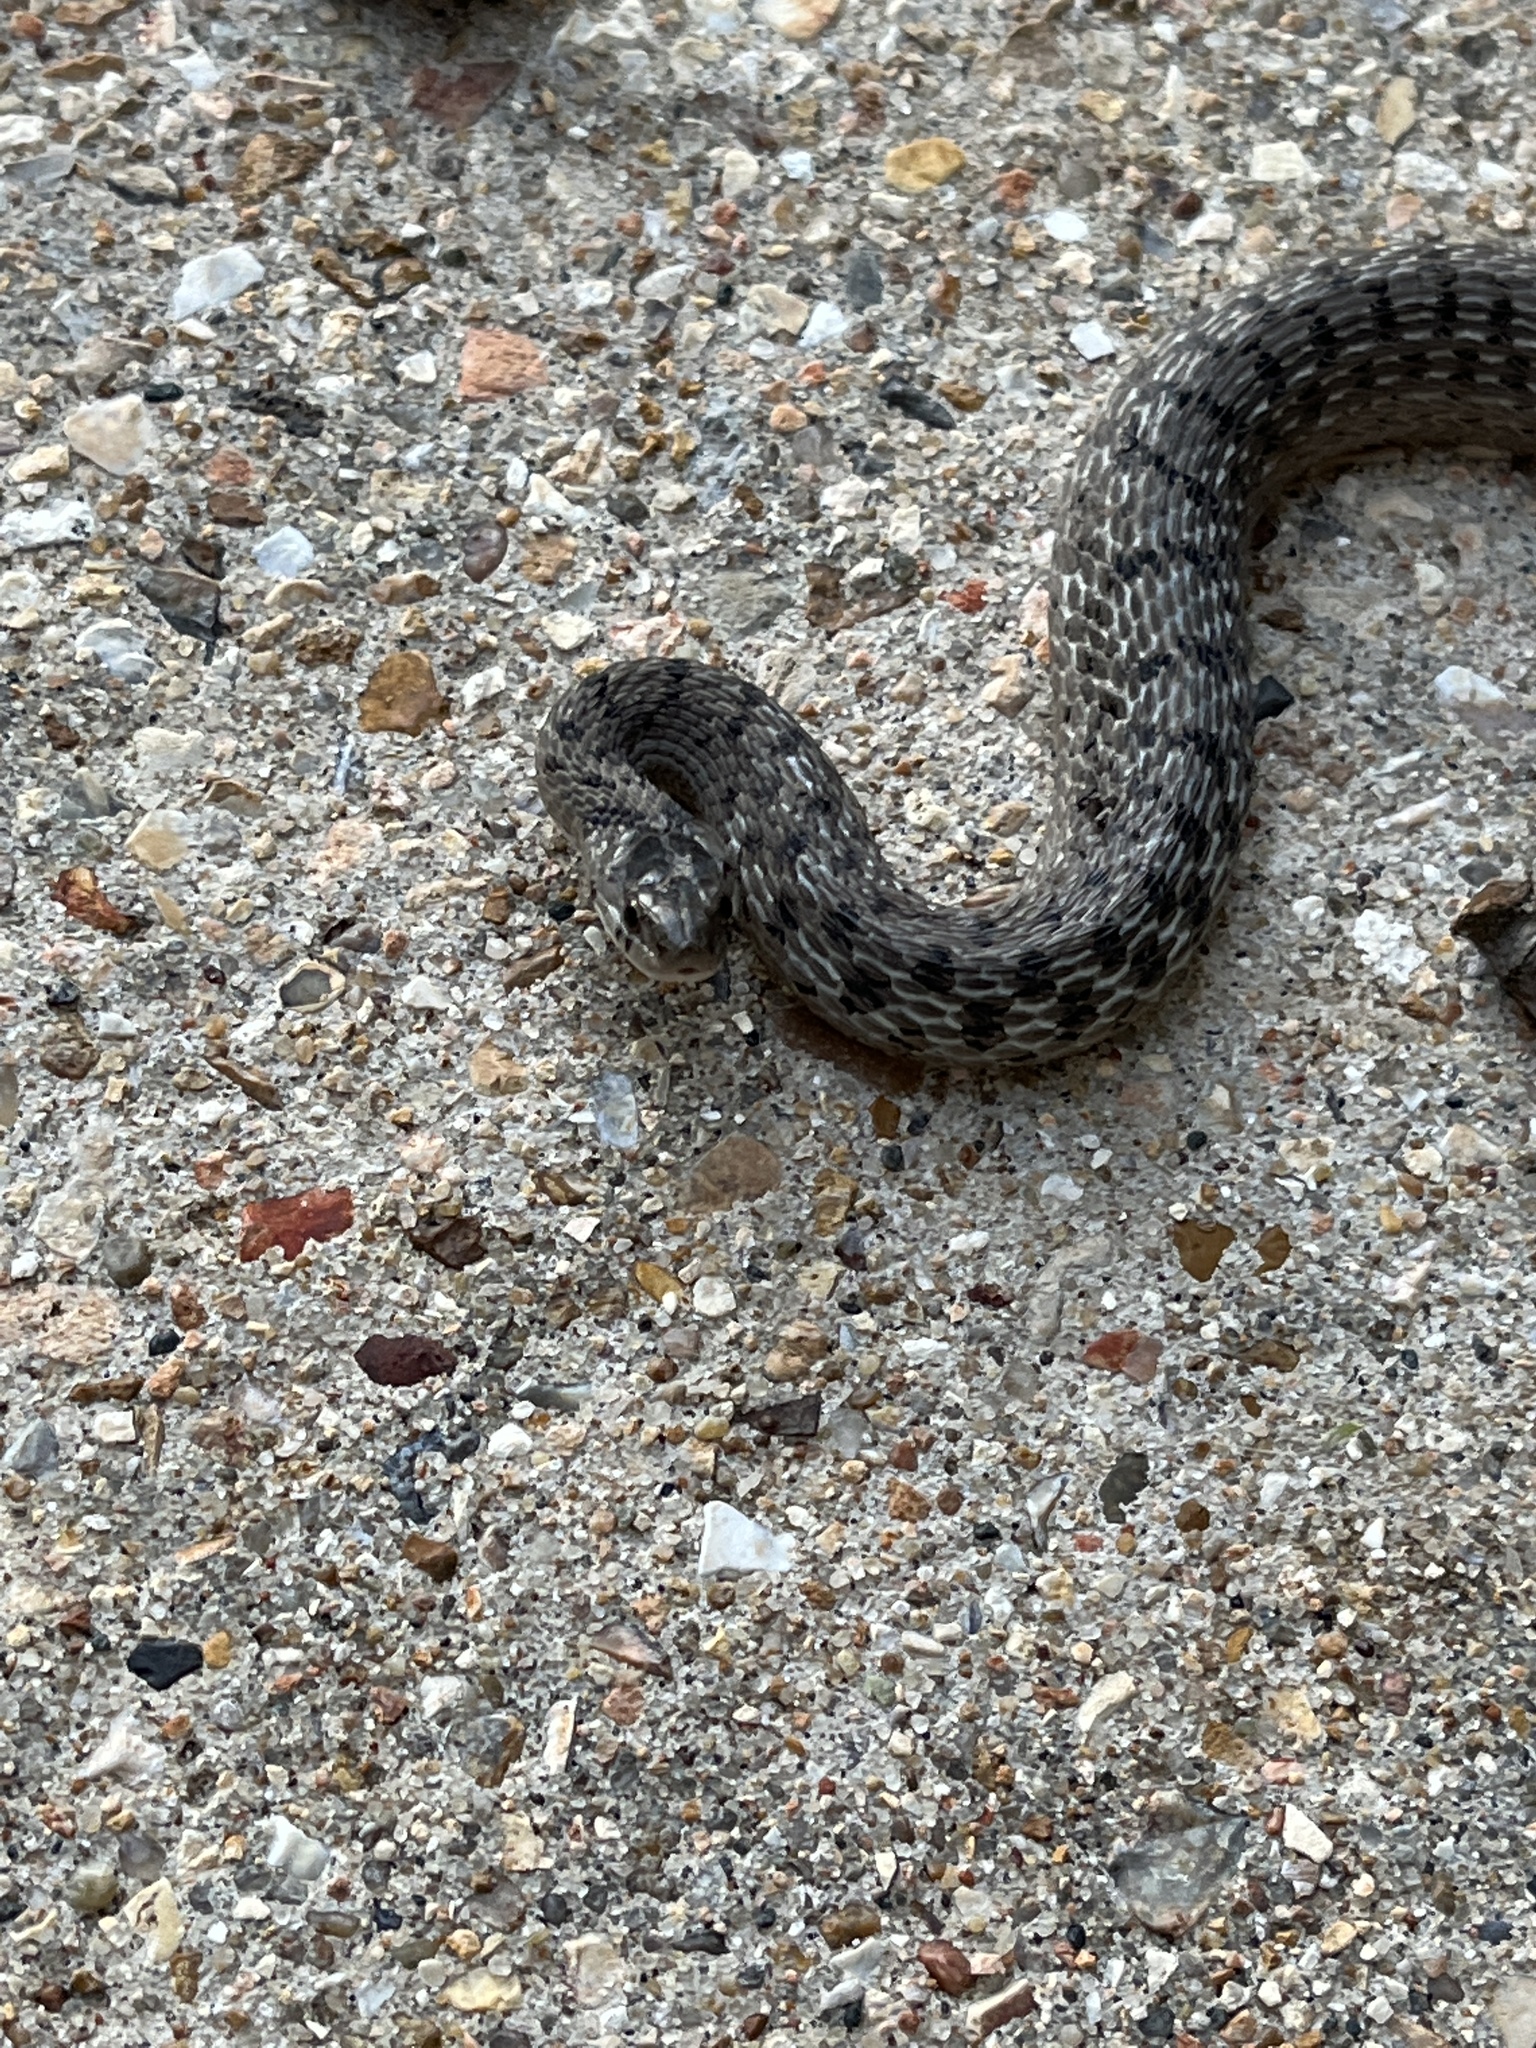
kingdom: Animalia
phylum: Chordata
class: Squamata
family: Colubridae
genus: Storeria
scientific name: Storeria dekayi
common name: (dekay’s) brown snake
